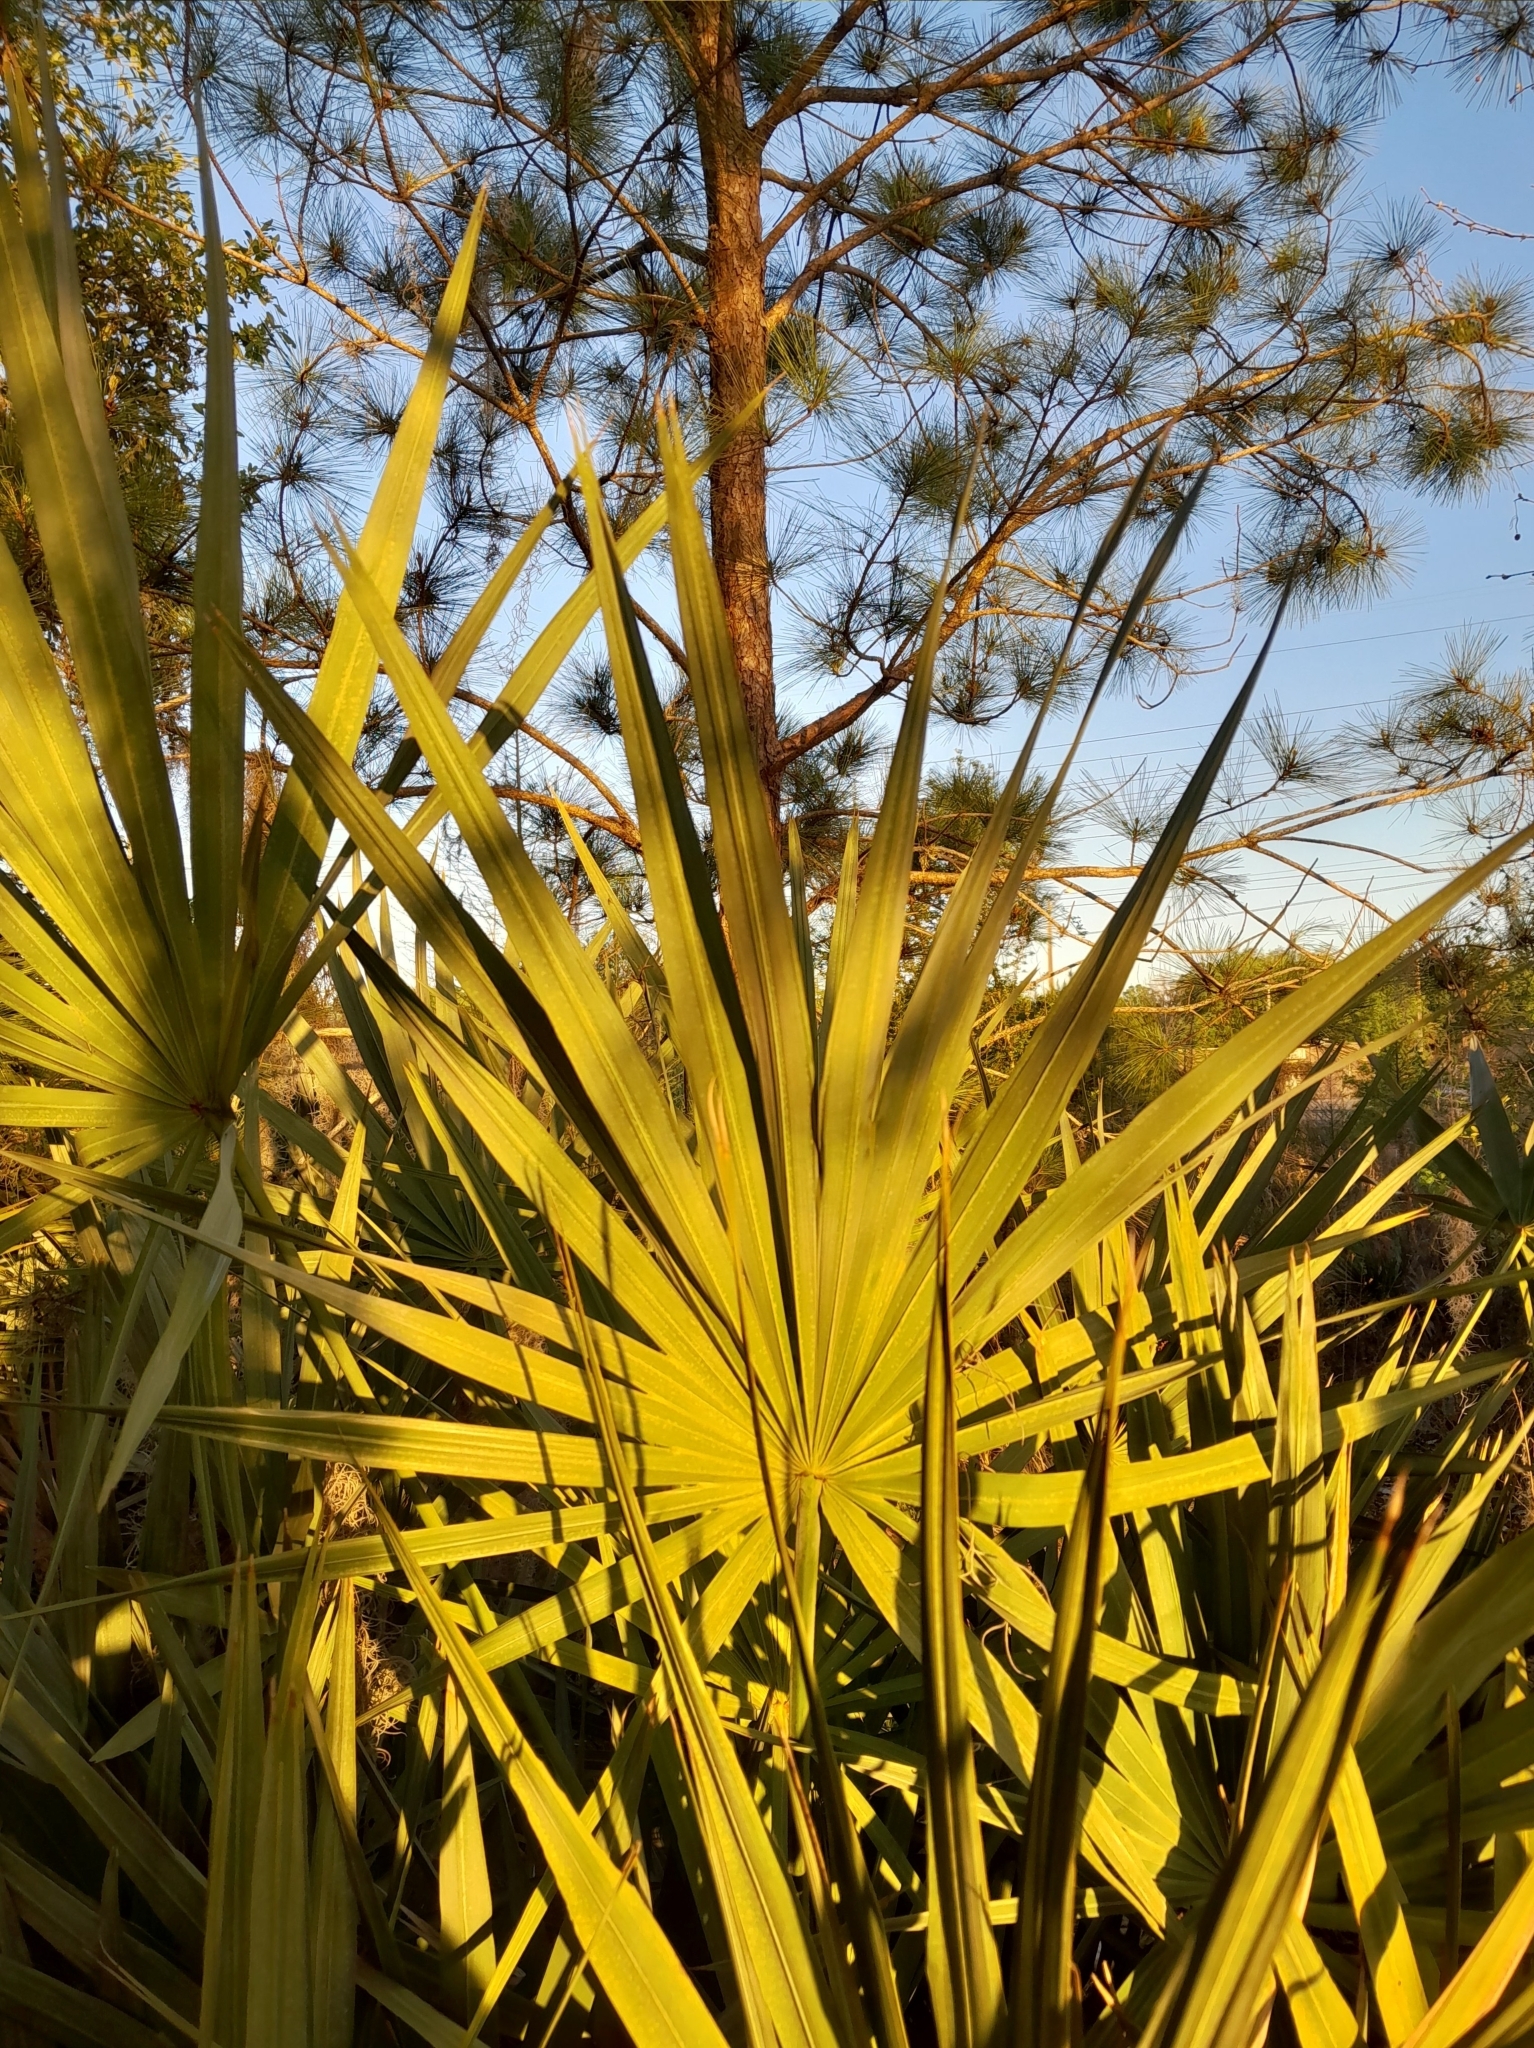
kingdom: Plantae
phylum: Tracheophyta
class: Liliopsida
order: Arecales
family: Arecaceae
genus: Serenoa
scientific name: Serenoa repens
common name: Saw-palmetto
